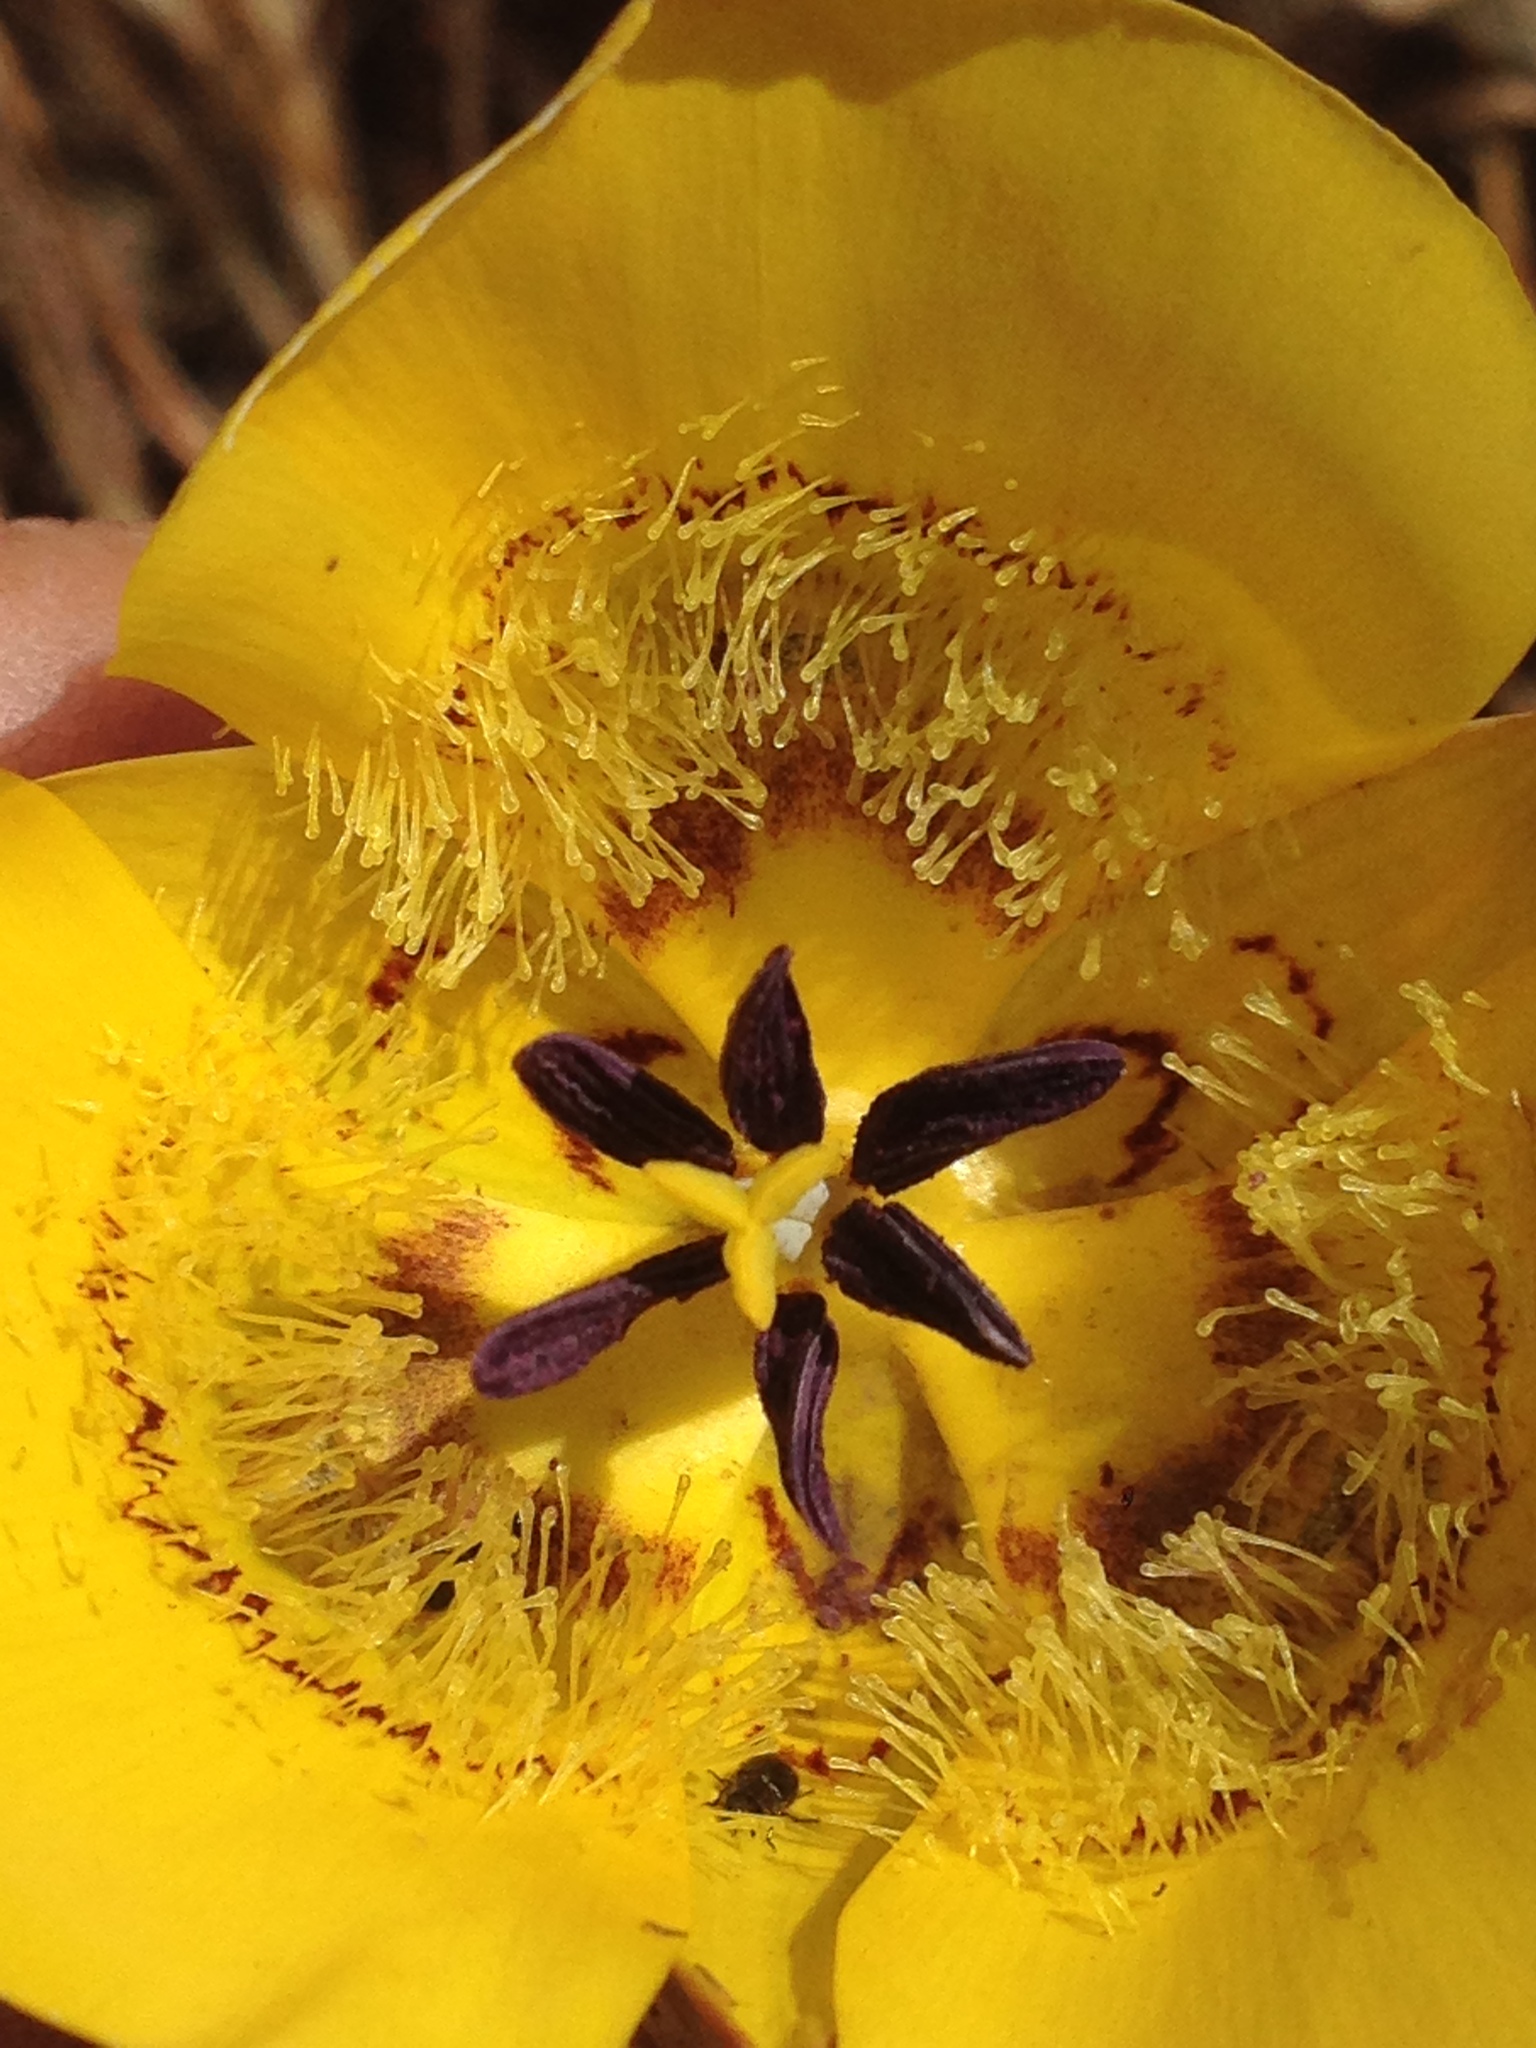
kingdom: Plantae
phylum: Tracheophyta
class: Liliopsida
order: Liliales
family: Liliaceae
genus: Calochortus
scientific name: Calochortus clavatus
